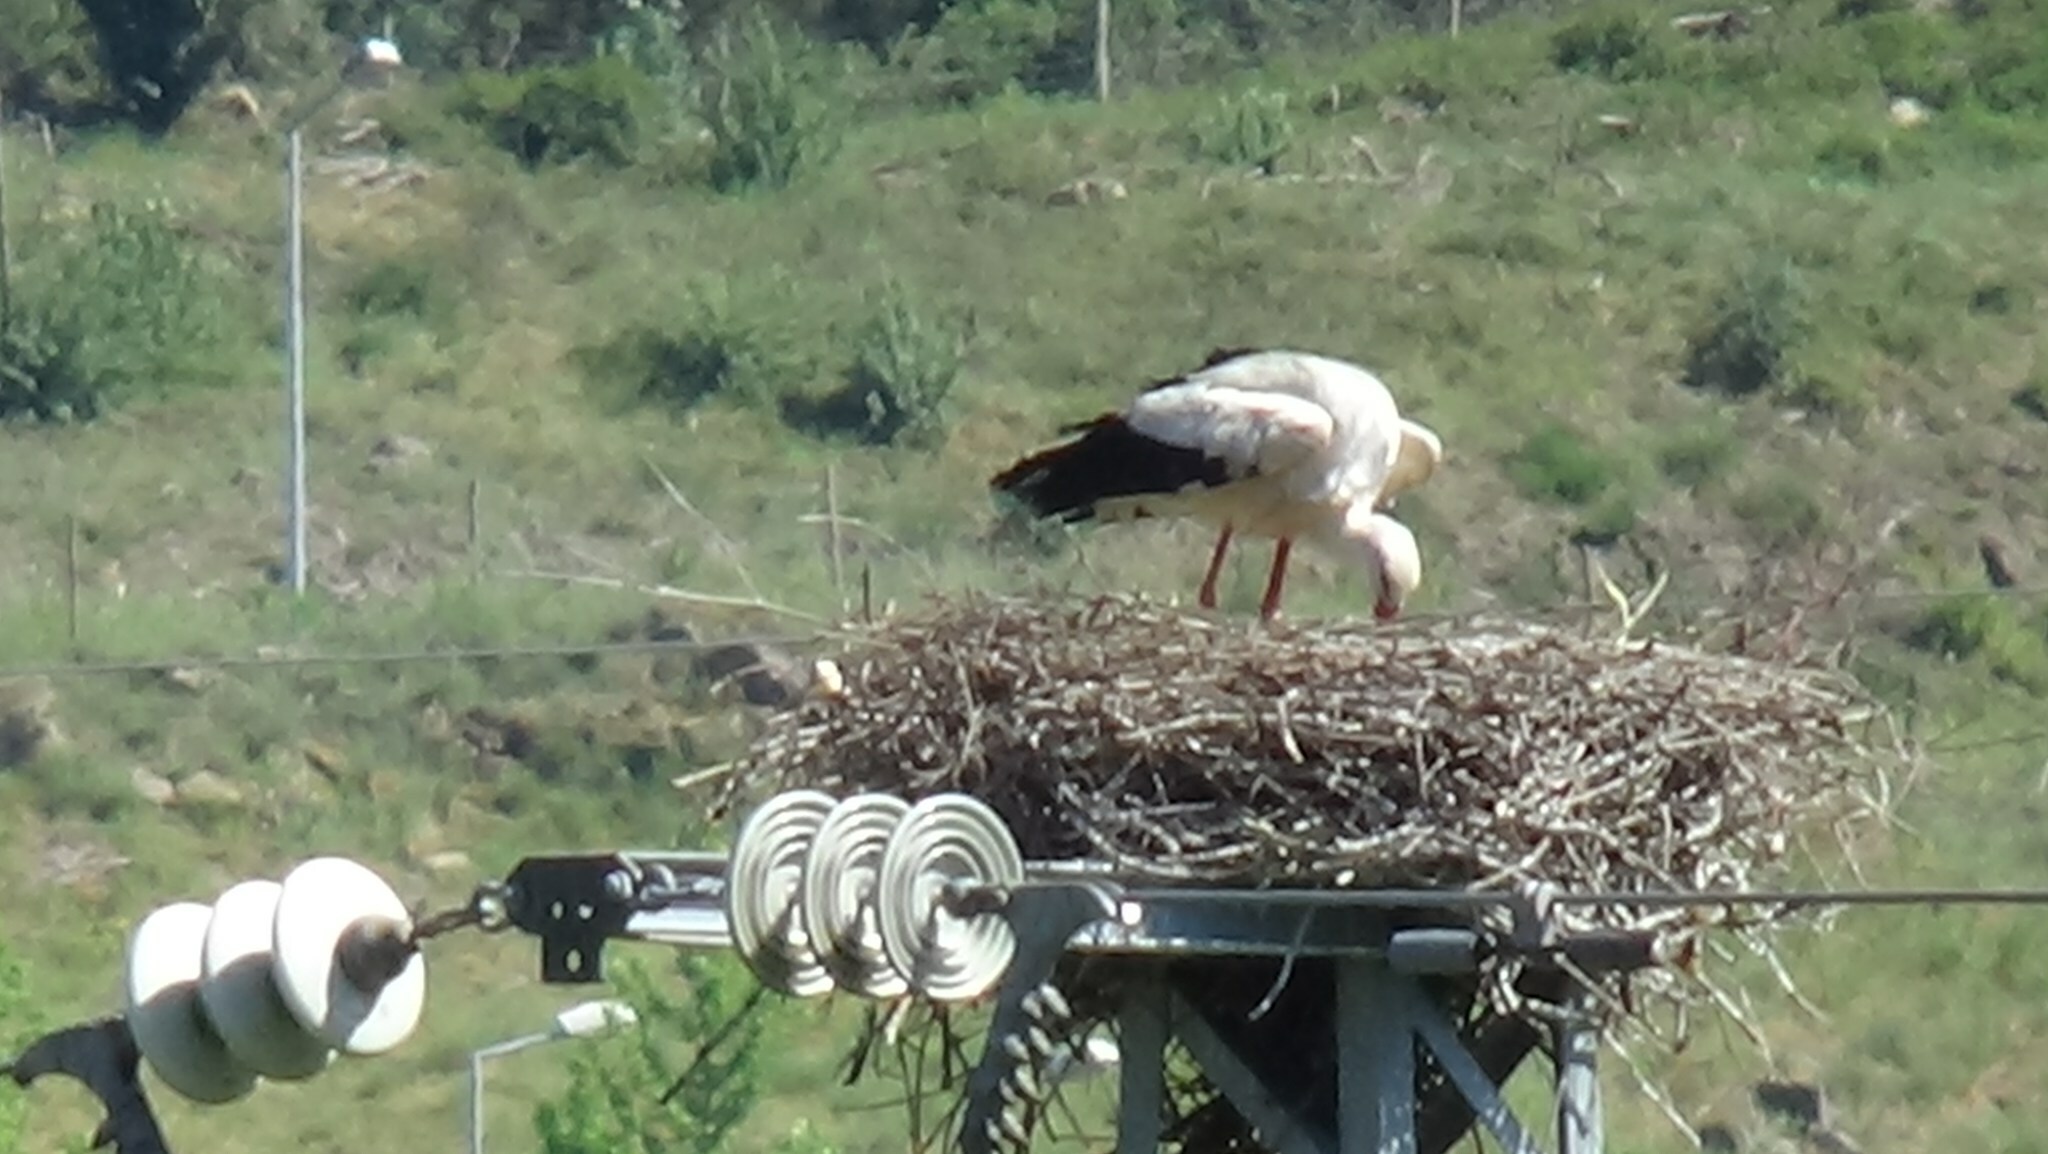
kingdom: Animalia
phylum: Chordata
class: Aves
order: Ciconiiformes
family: Ciconiidae
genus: Ciconia
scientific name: Ciconia ciconia
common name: White stork
